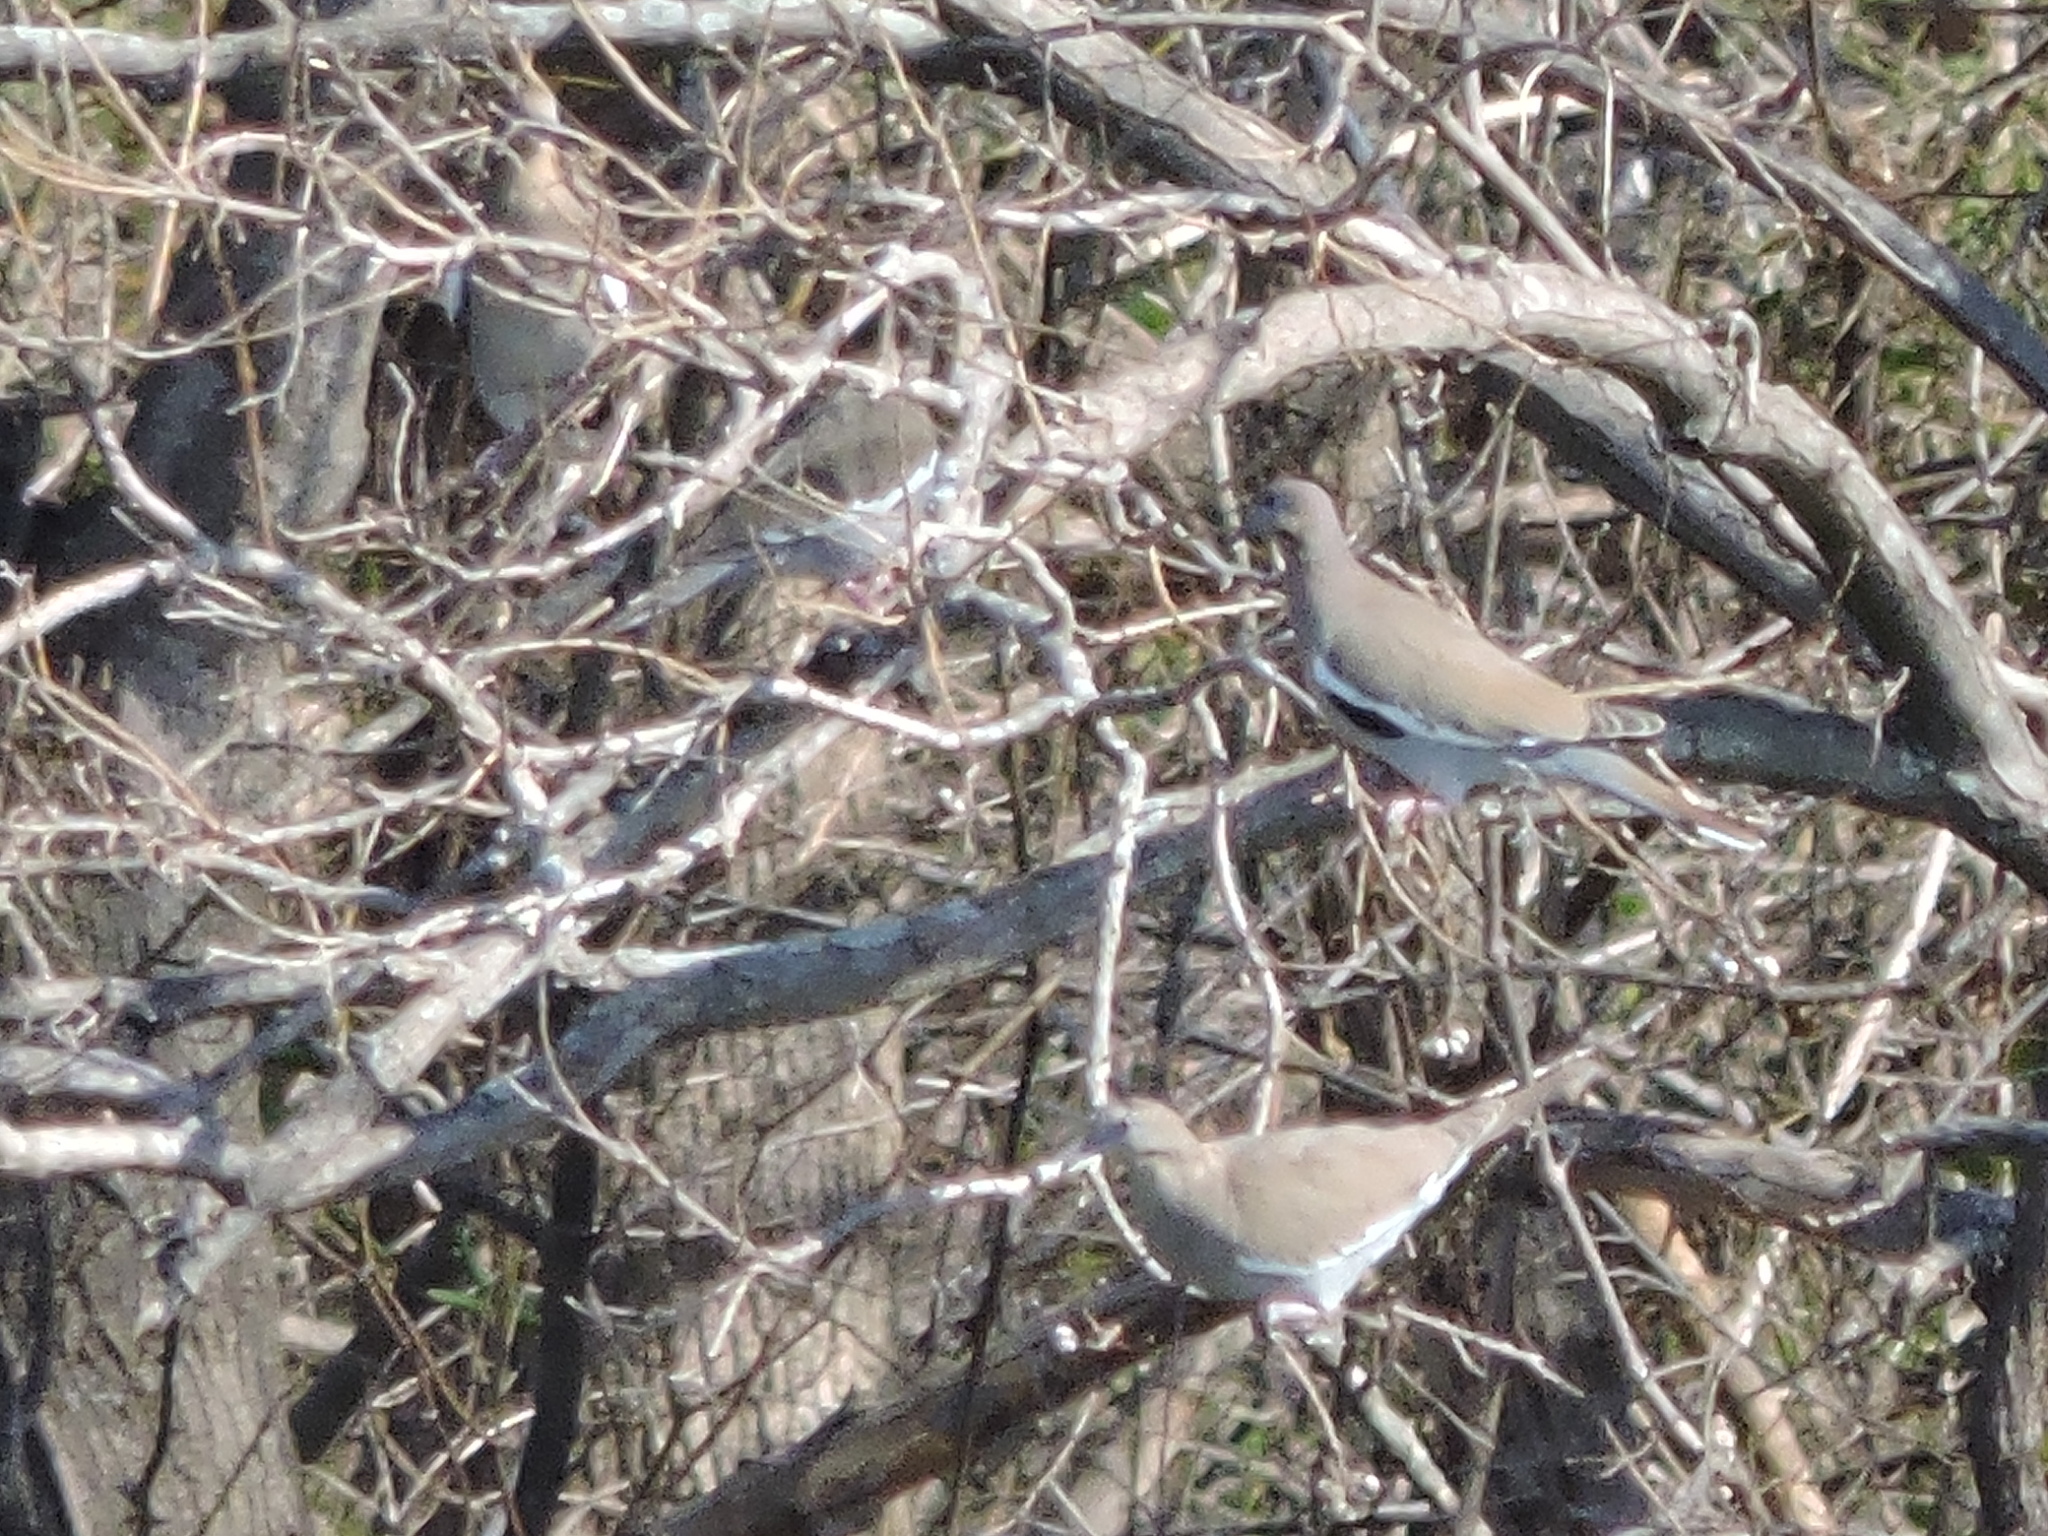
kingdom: Animalia
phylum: Chordata
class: Aves
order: Columbiformes
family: Columbidae
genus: Zenaida
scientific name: Zenaida asiatica
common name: White-winged dove
